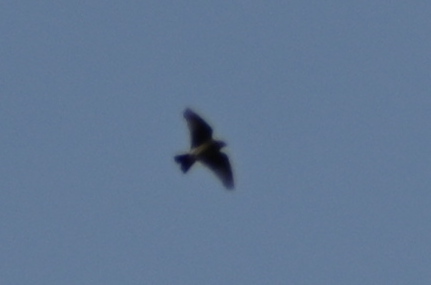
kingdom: Animalia
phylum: Chordata
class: Aves
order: Passeriformes
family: Alaudidae
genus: Alauda
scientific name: Alauda arvensis
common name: Eurasian skylark
